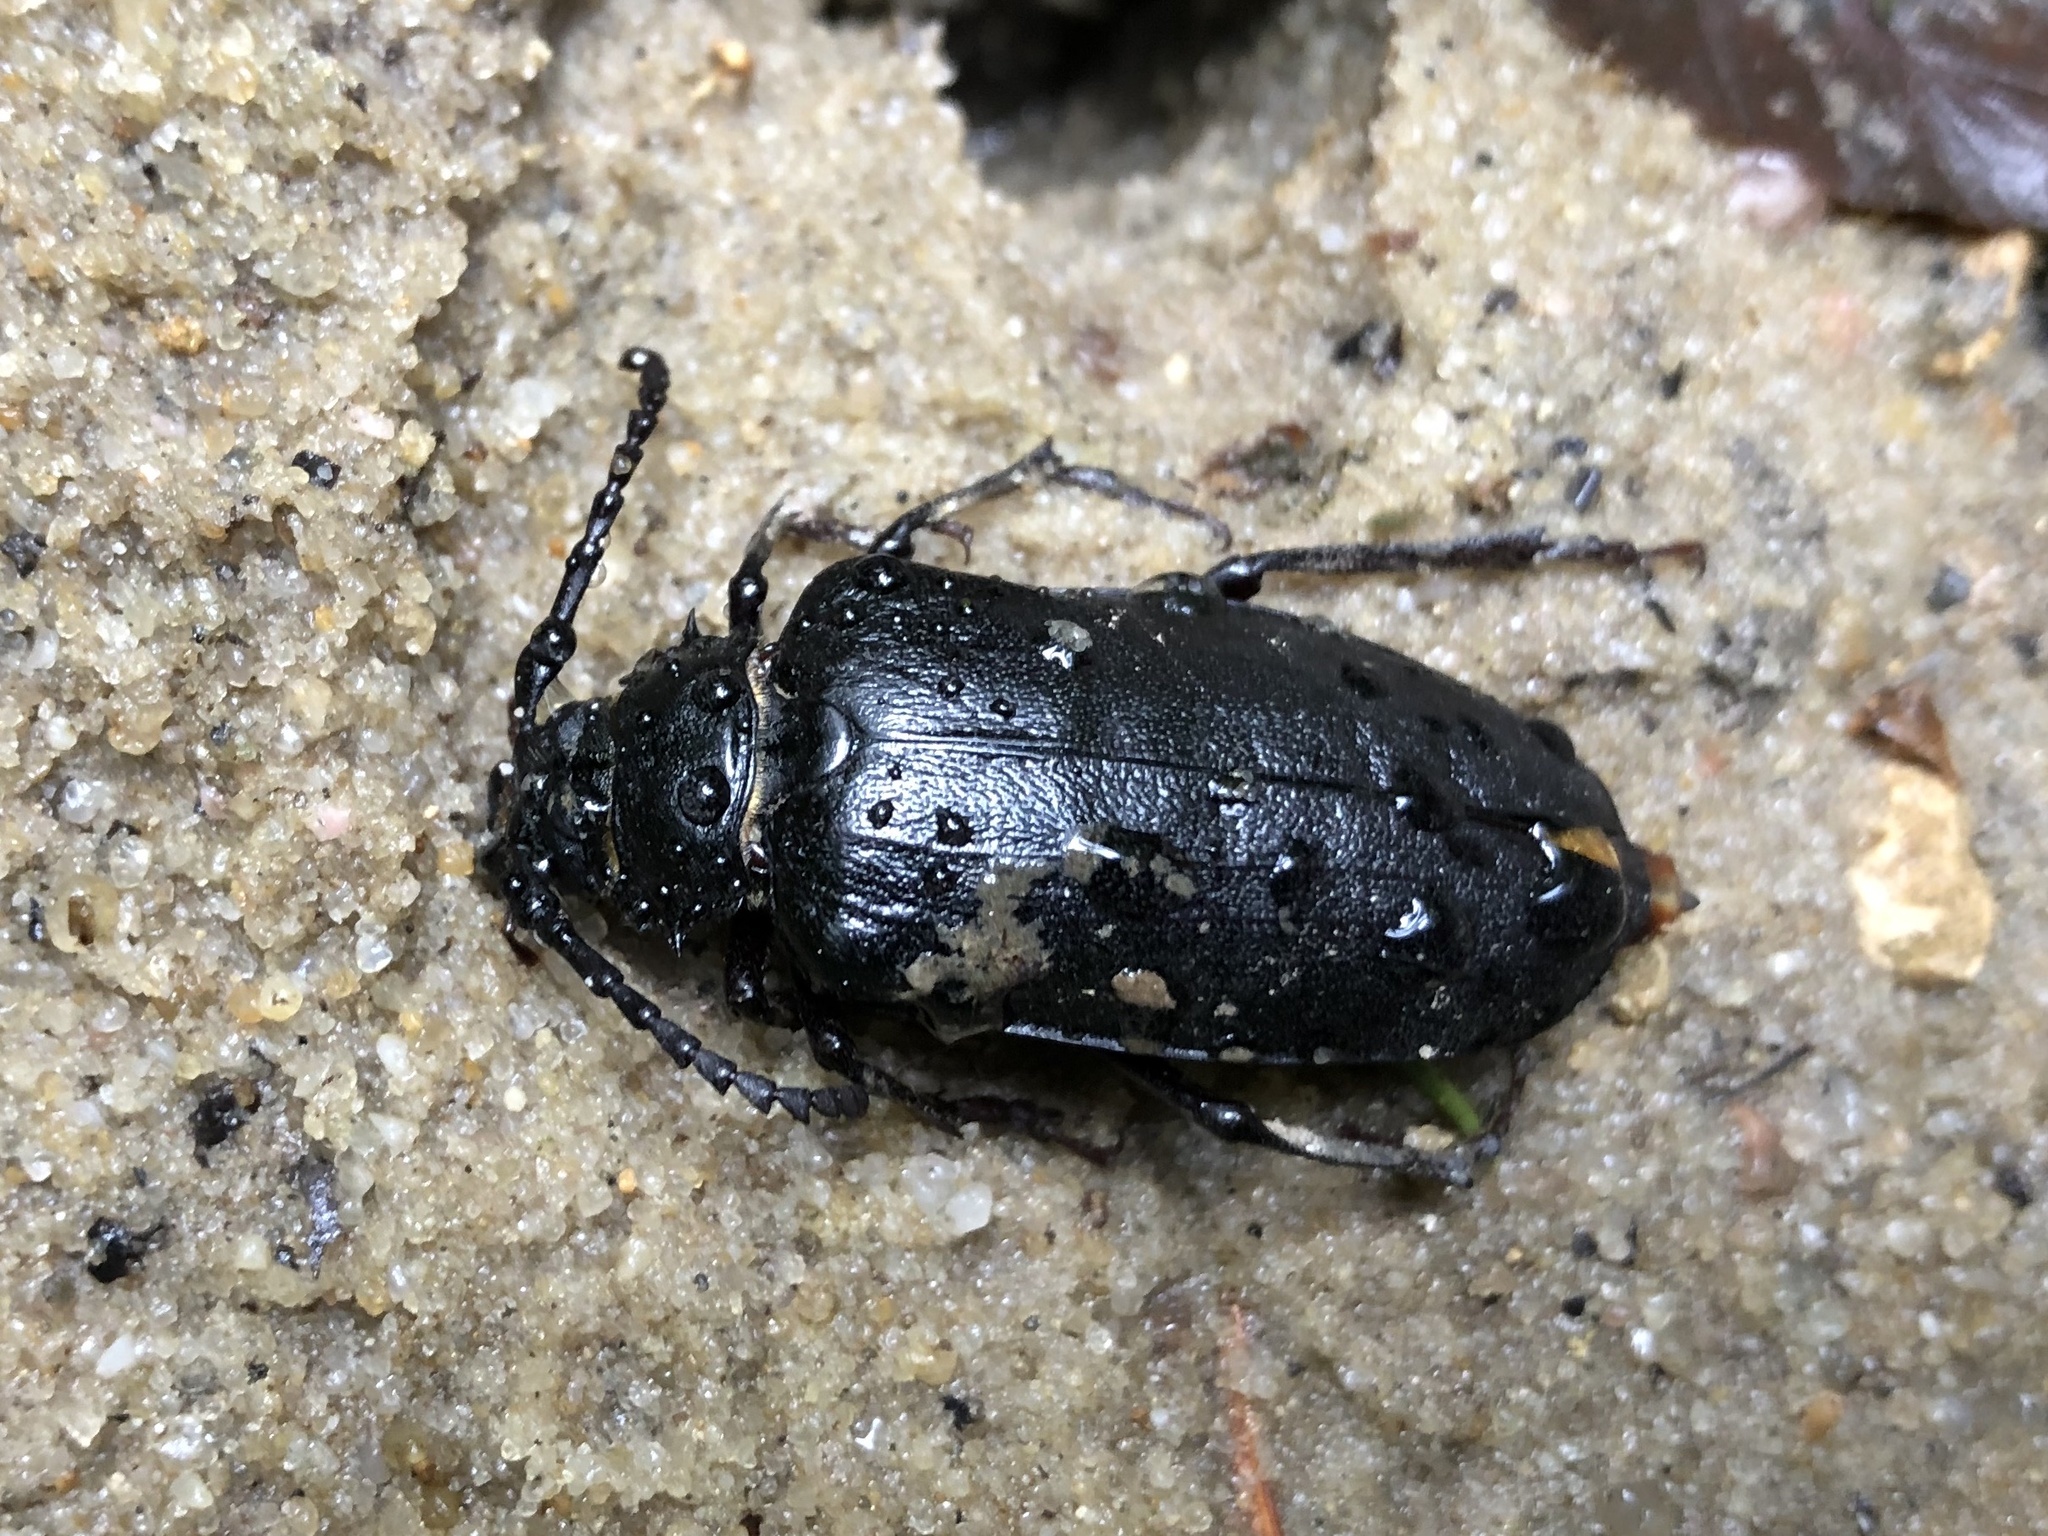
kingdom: Animalia
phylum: Arthropoda
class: Insecta
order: Coleoptera
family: Cerambycidae
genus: Prionus
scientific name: Prionus coriarius
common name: Tanner beetle
